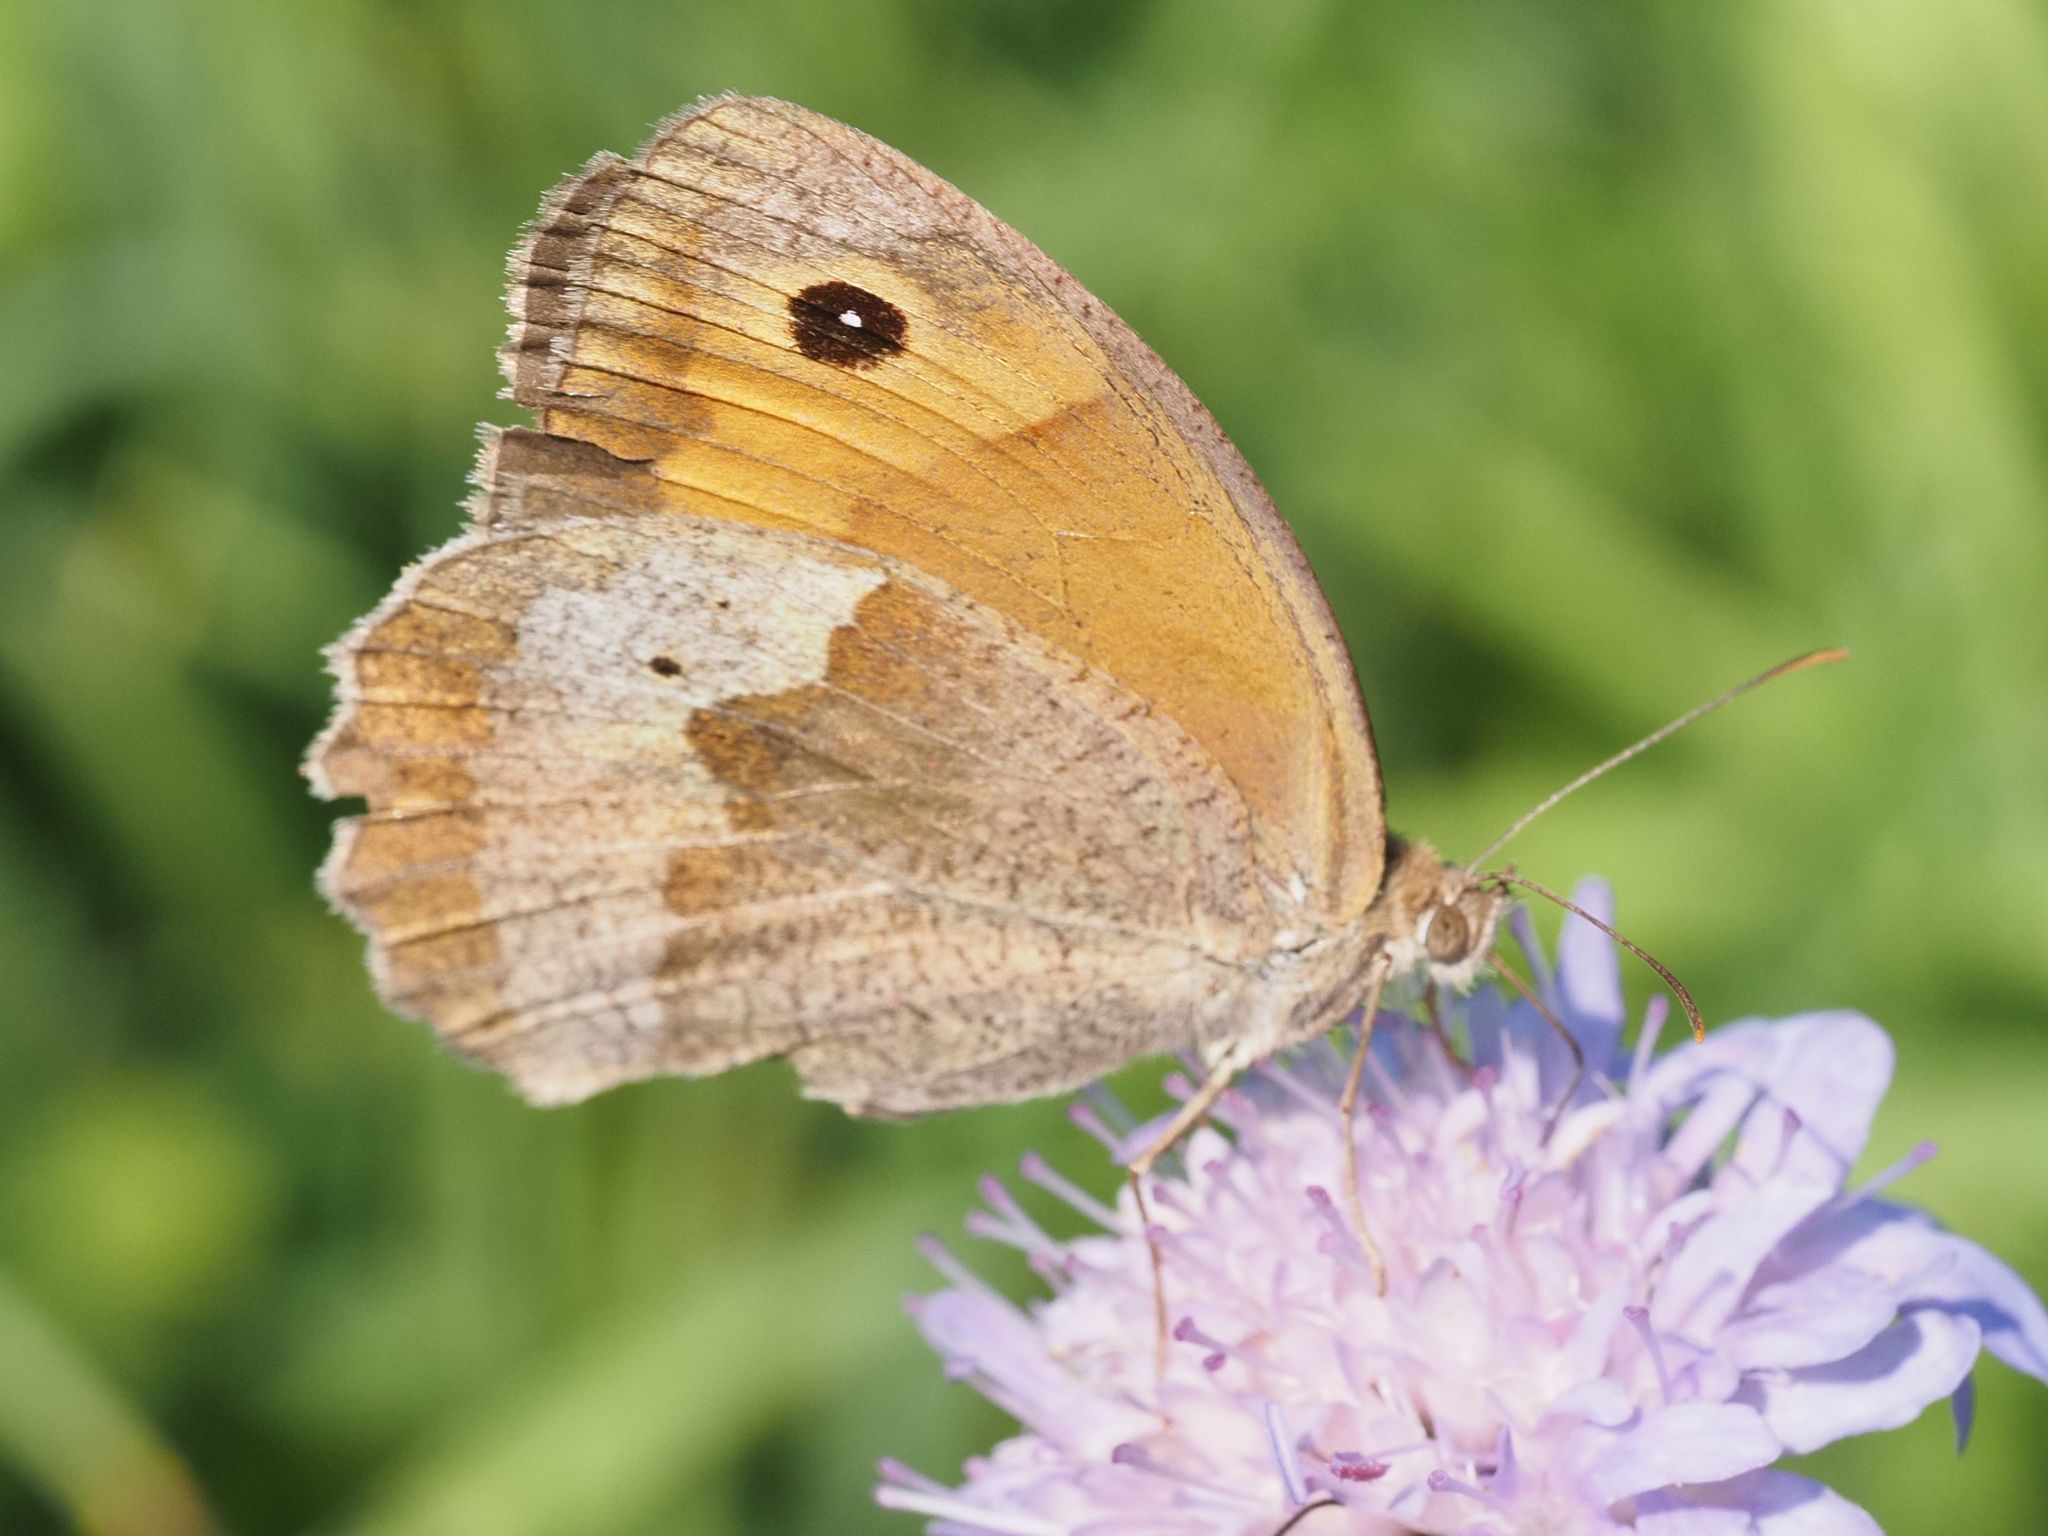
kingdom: Animalia
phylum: Arthropoda
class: Insecta
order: Lepidoptera
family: Nymphalidae
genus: Maniola
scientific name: Maniola jurtina
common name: Meadow brown
